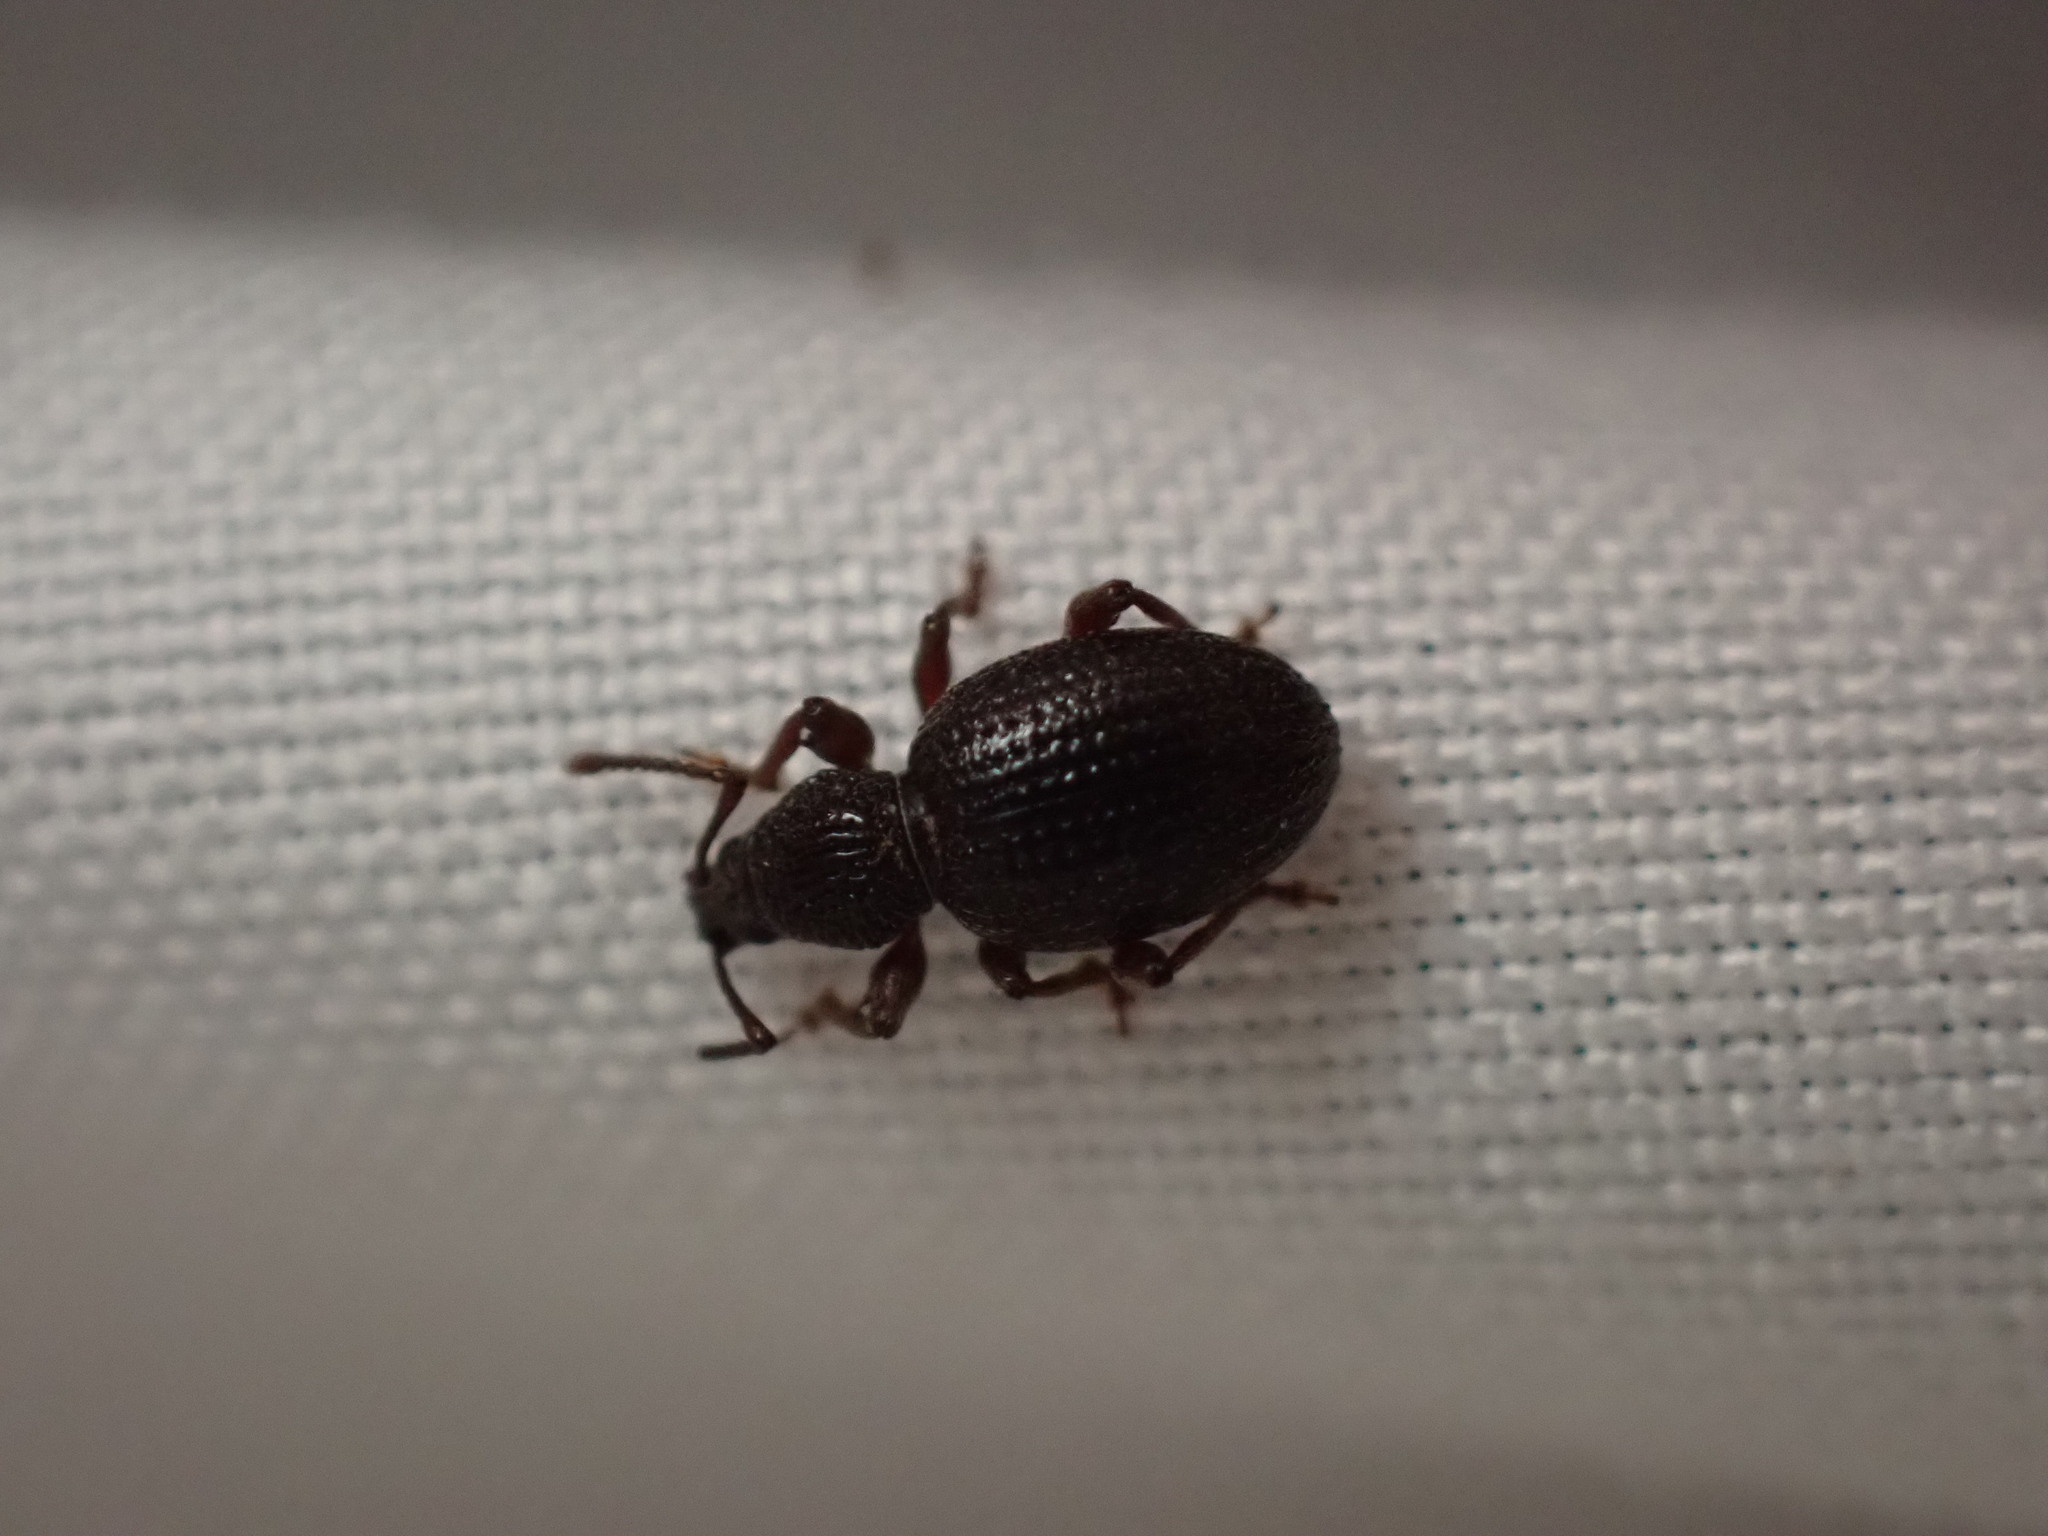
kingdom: Animalia
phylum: Arthropoda
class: Insecta
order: Coleoptera
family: Curculionidae
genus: Otiorhynchus
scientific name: Otiorhynchus ovatus
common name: Strawberry root weevil
